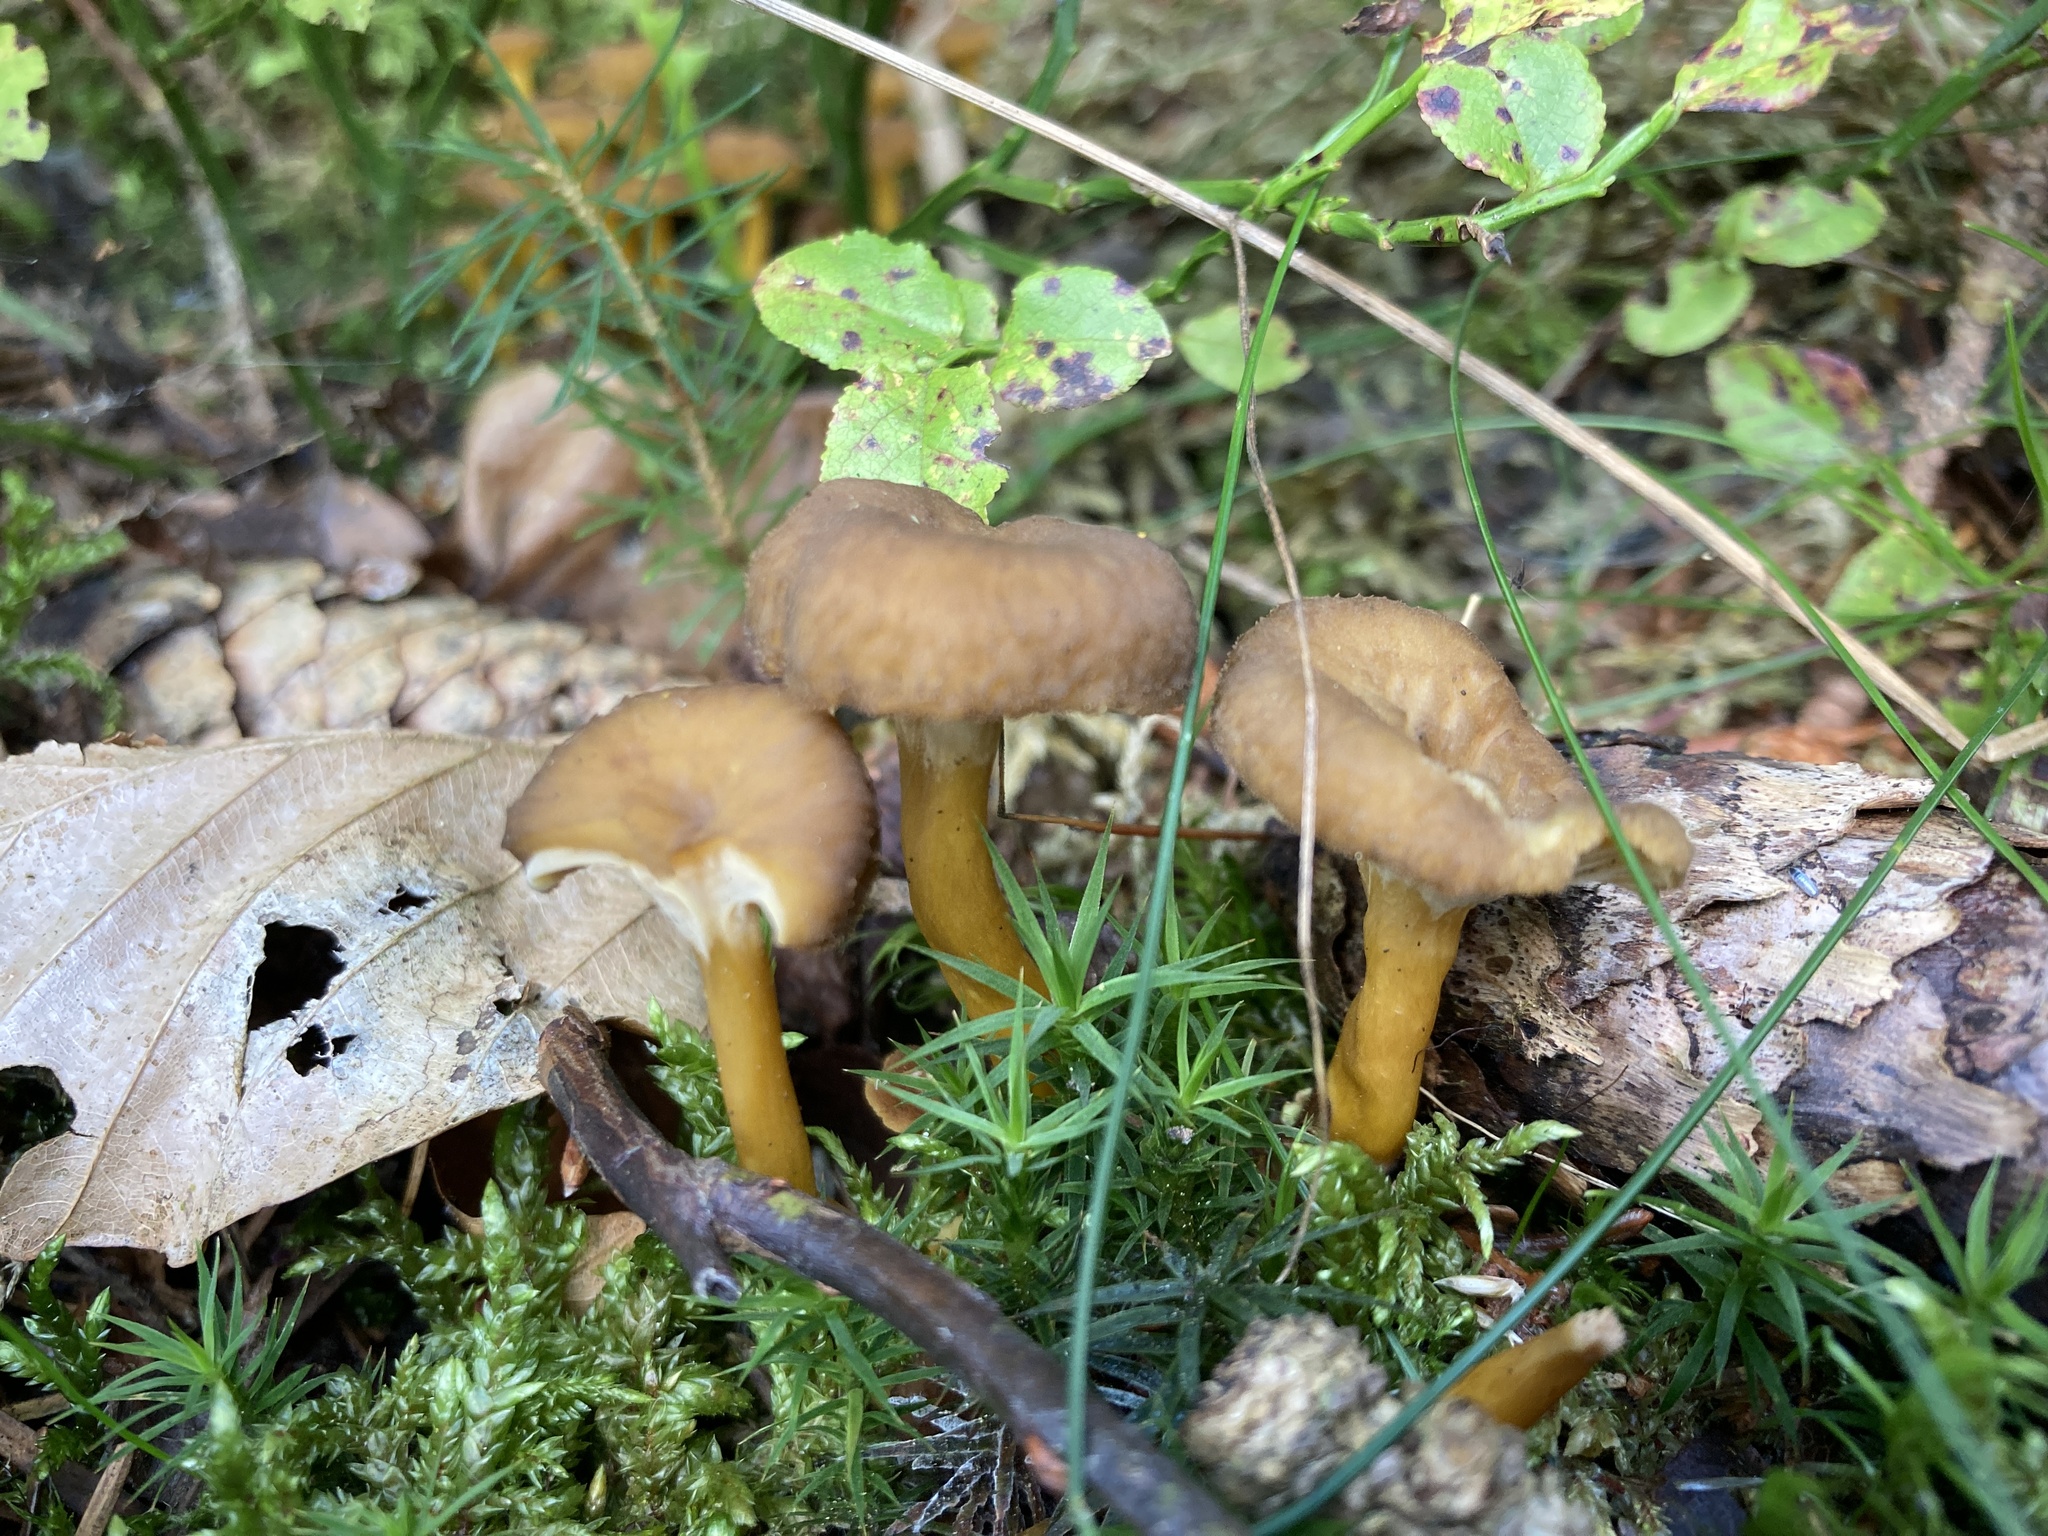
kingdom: Fungi
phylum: Basidiomycota
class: Agaricomycetes
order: Cantharellales
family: Hydnaceae
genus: Craterellus
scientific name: Craterellus tubaeformis
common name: Yellowfoot
